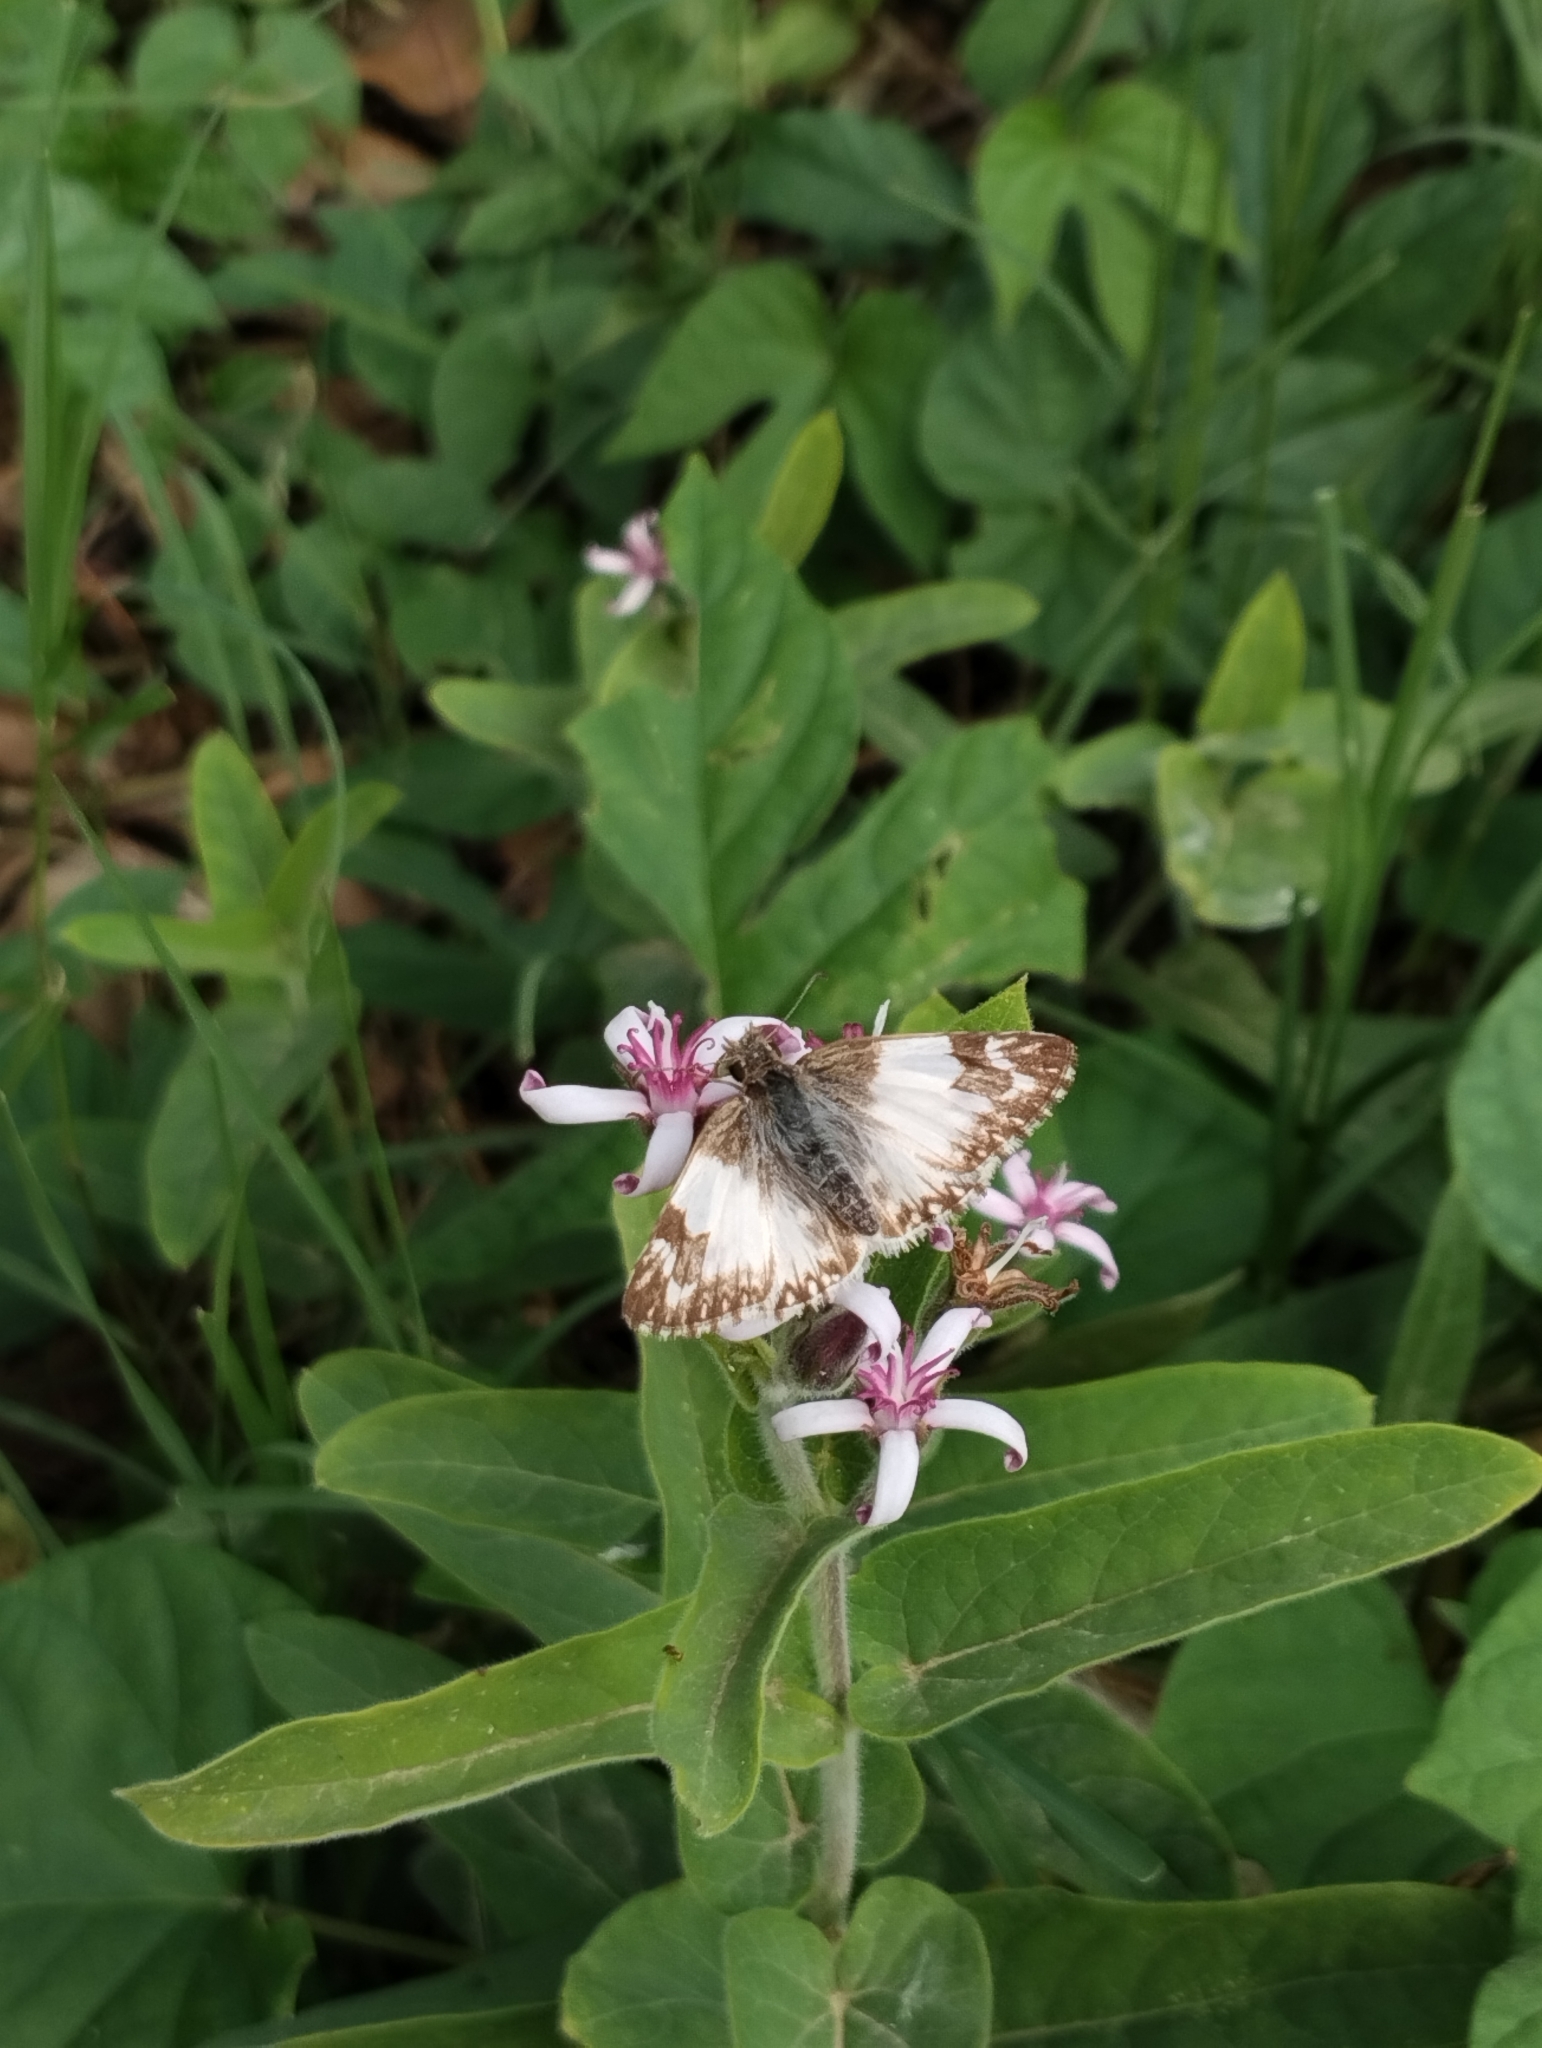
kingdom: Animalia
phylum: Arthropoda
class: Insecta
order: Lepidoptera
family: Hesperiidae
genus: Heliopetes
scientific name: Heliopetes omrina
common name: Stained white-skipper
